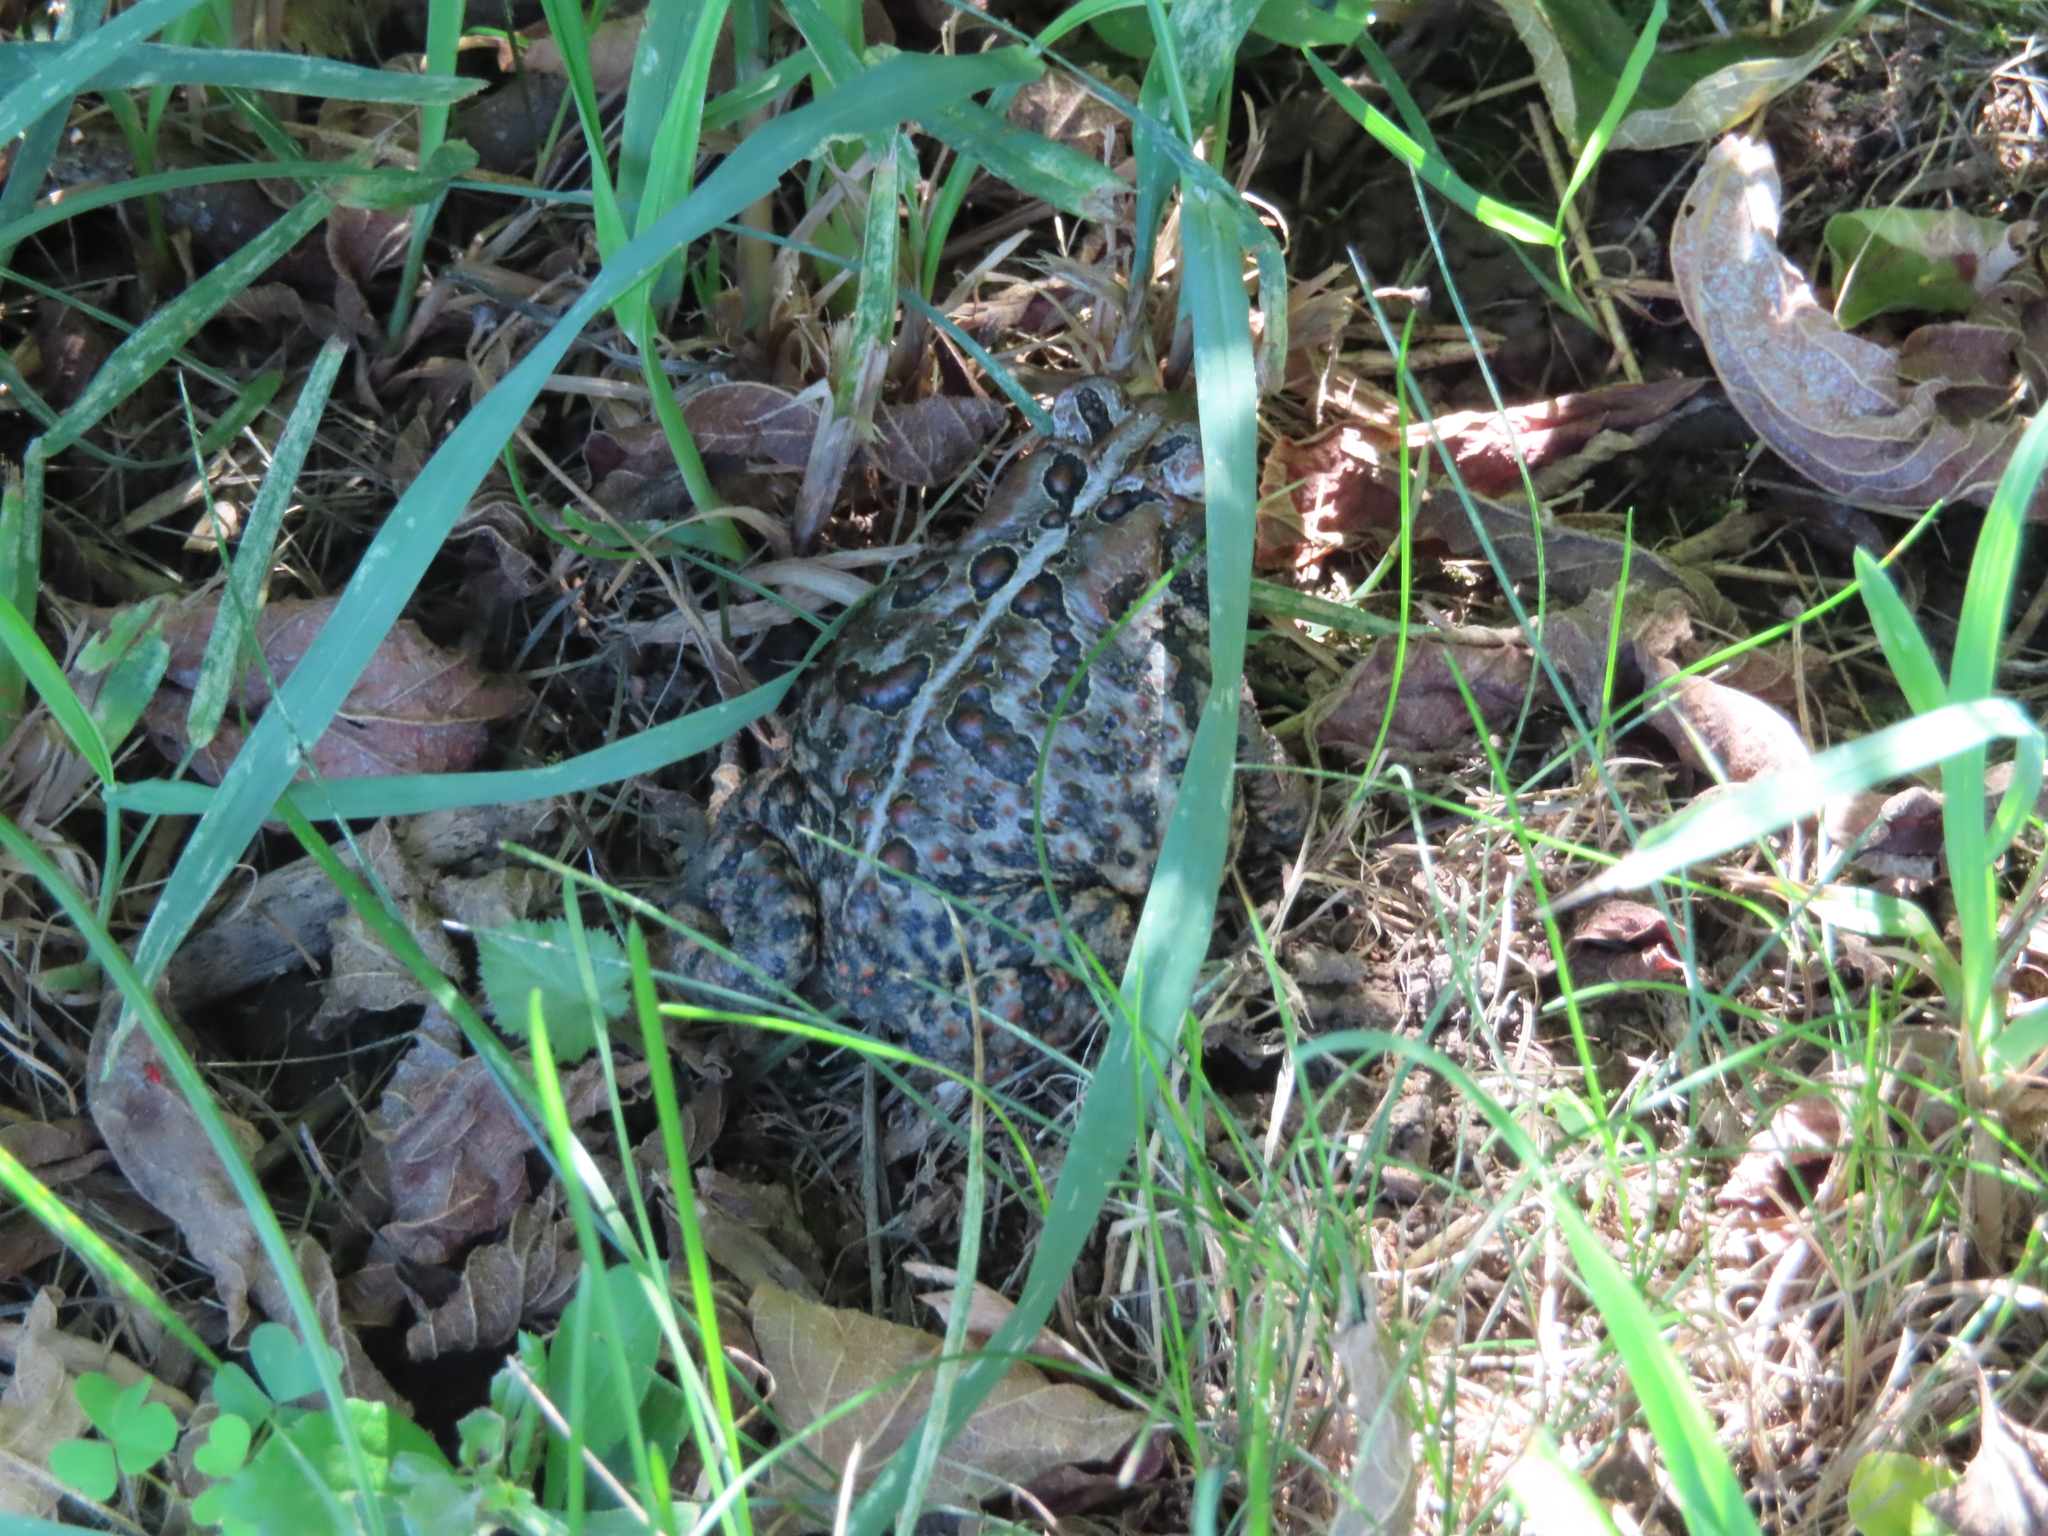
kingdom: Animalia
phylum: Chordata
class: Amphibia
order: Anura
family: Bufonidae
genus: Anaxyrus
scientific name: Anaxyrus americanus
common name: American toad
